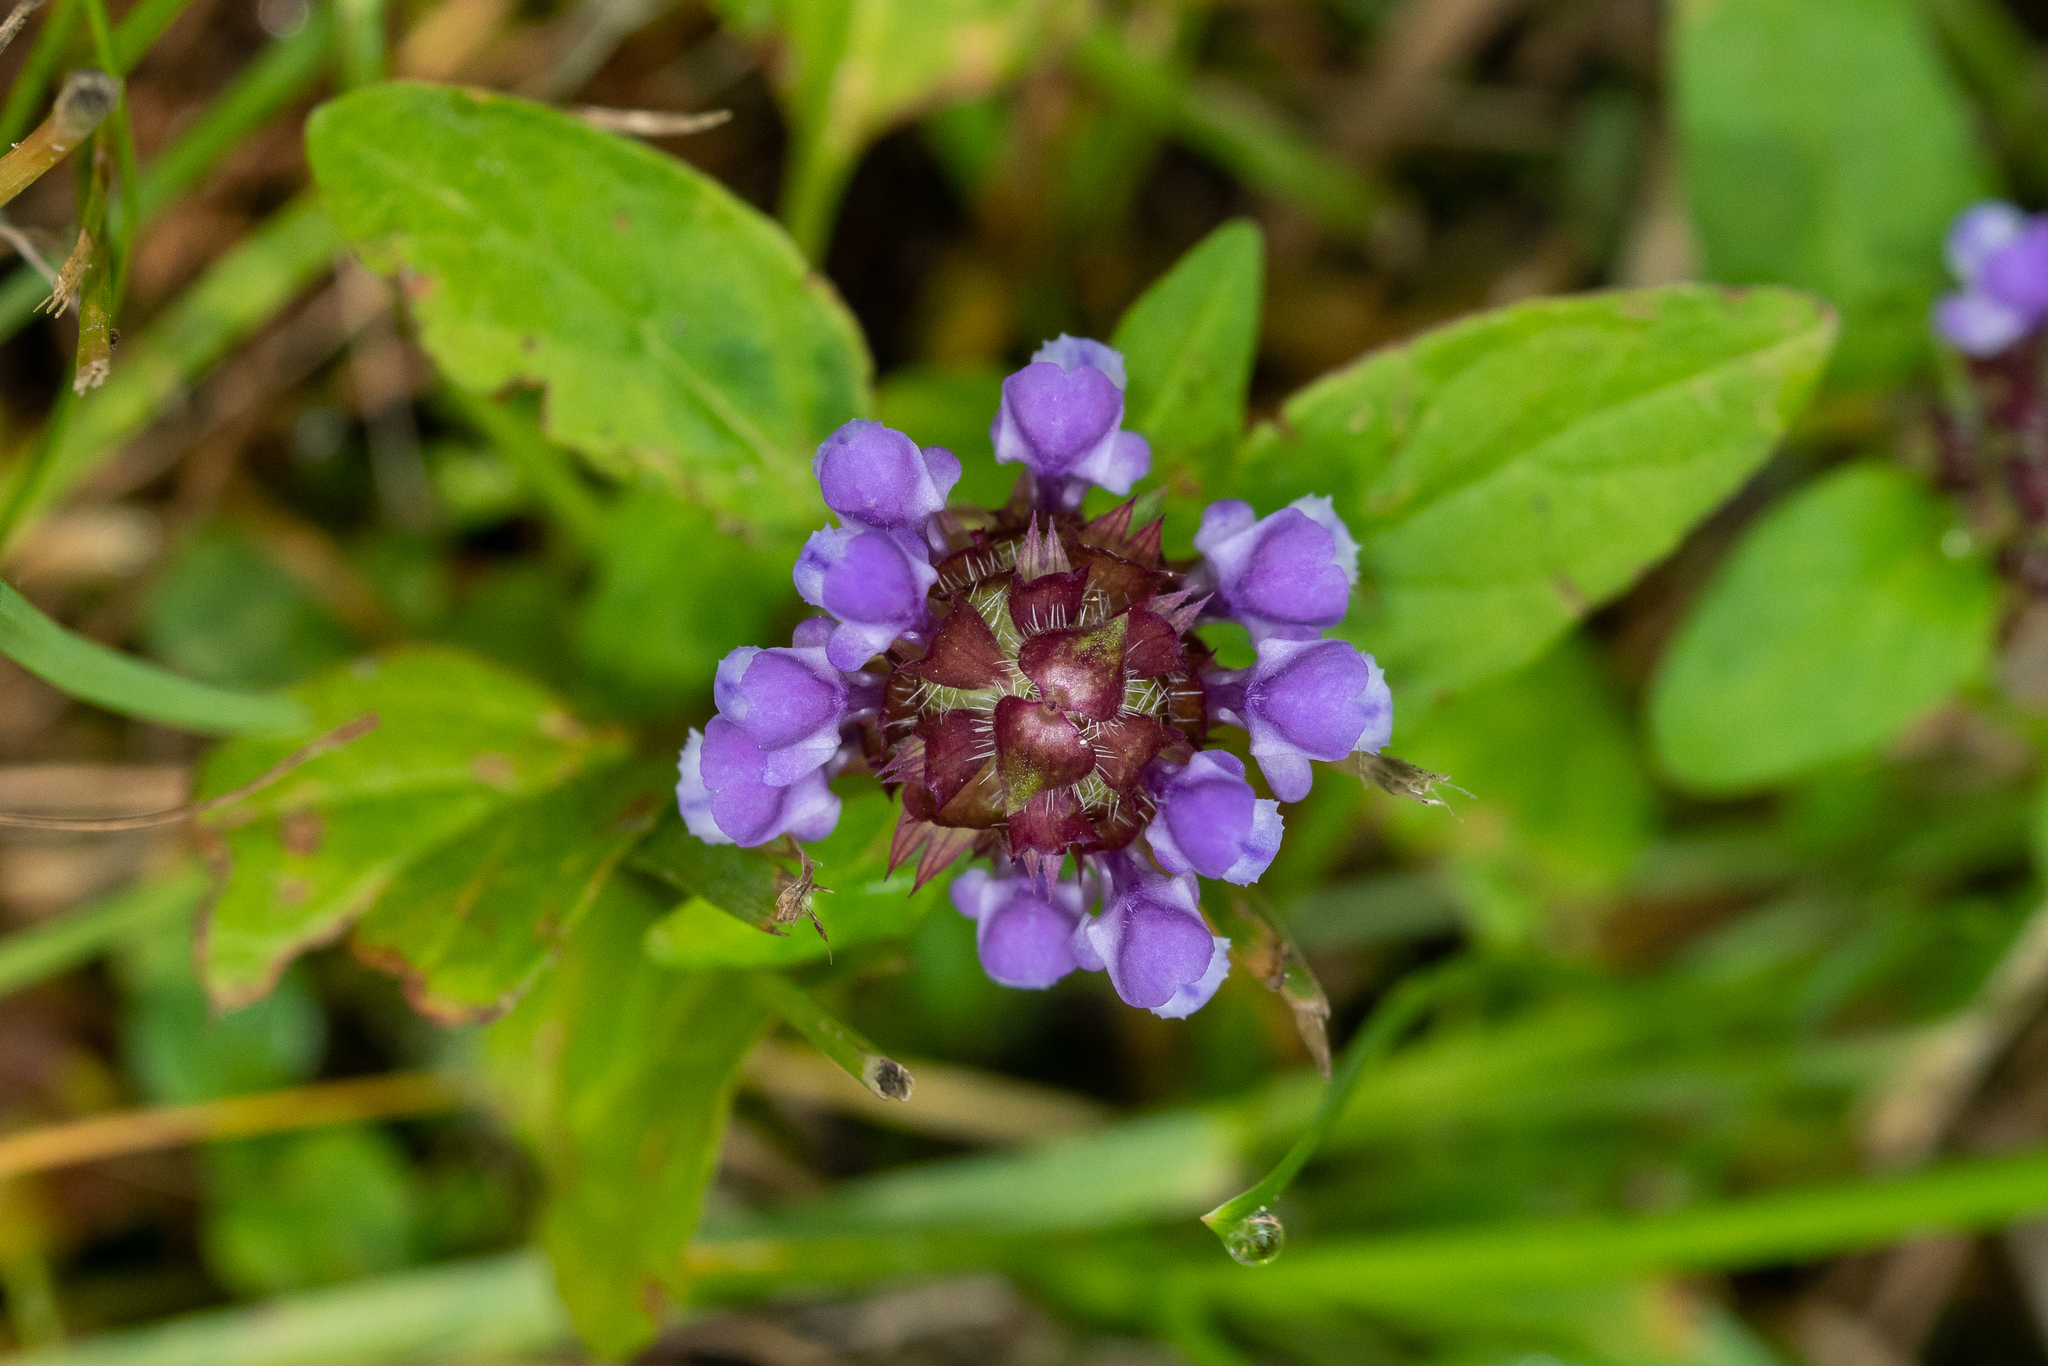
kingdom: Plantae
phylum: Tracheophyta
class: Magnoliopsida
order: Lamiales
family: Lamiaceae
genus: Prunella
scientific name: Prunella vulgaris
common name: Heal-all
